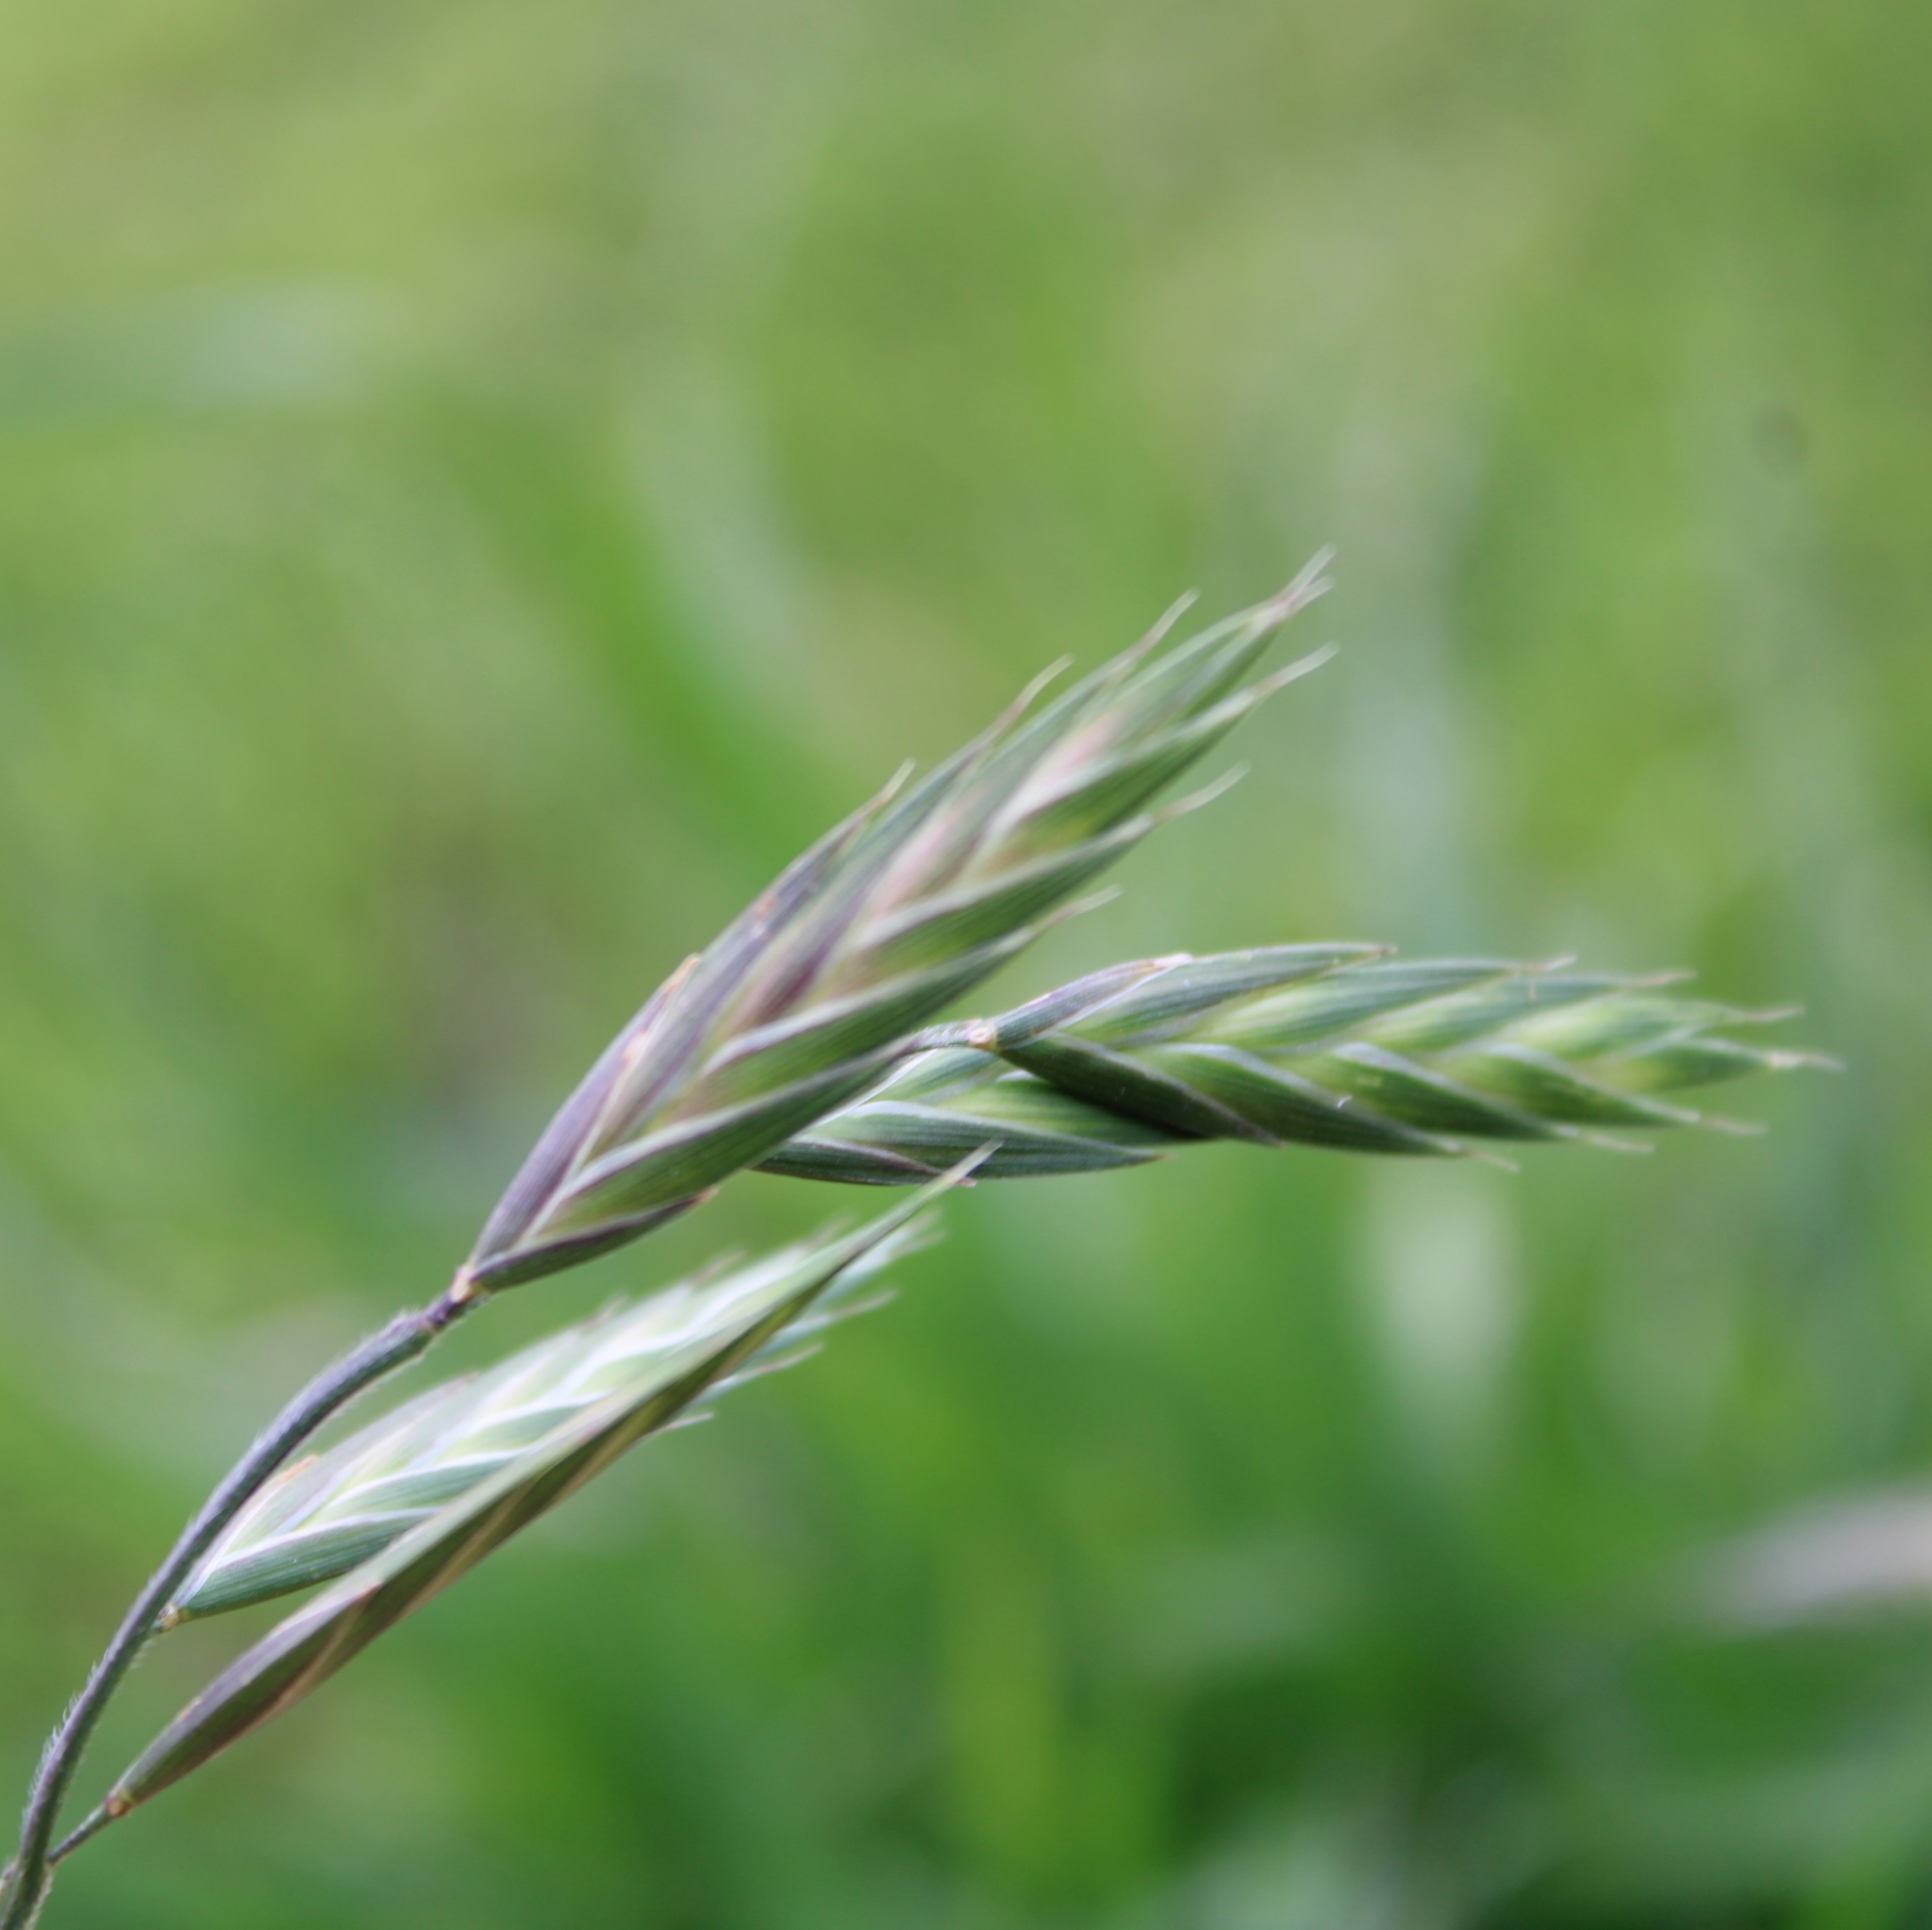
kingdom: Plantae
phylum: Tracheophyta
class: Liliopsida
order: Poales
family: Poaceae
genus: Bromus
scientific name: Bromus catharticus
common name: Rescuegrass
